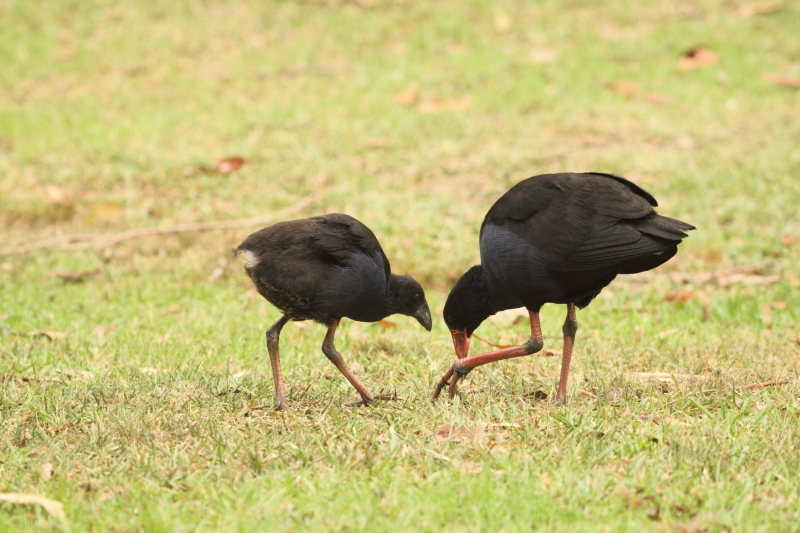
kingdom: Animalia
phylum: Chordata
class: Aves
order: Gruiformes
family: Rallidae
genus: Porphyrio
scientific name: Porphyrio melanotus
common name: Australasian swamphen
